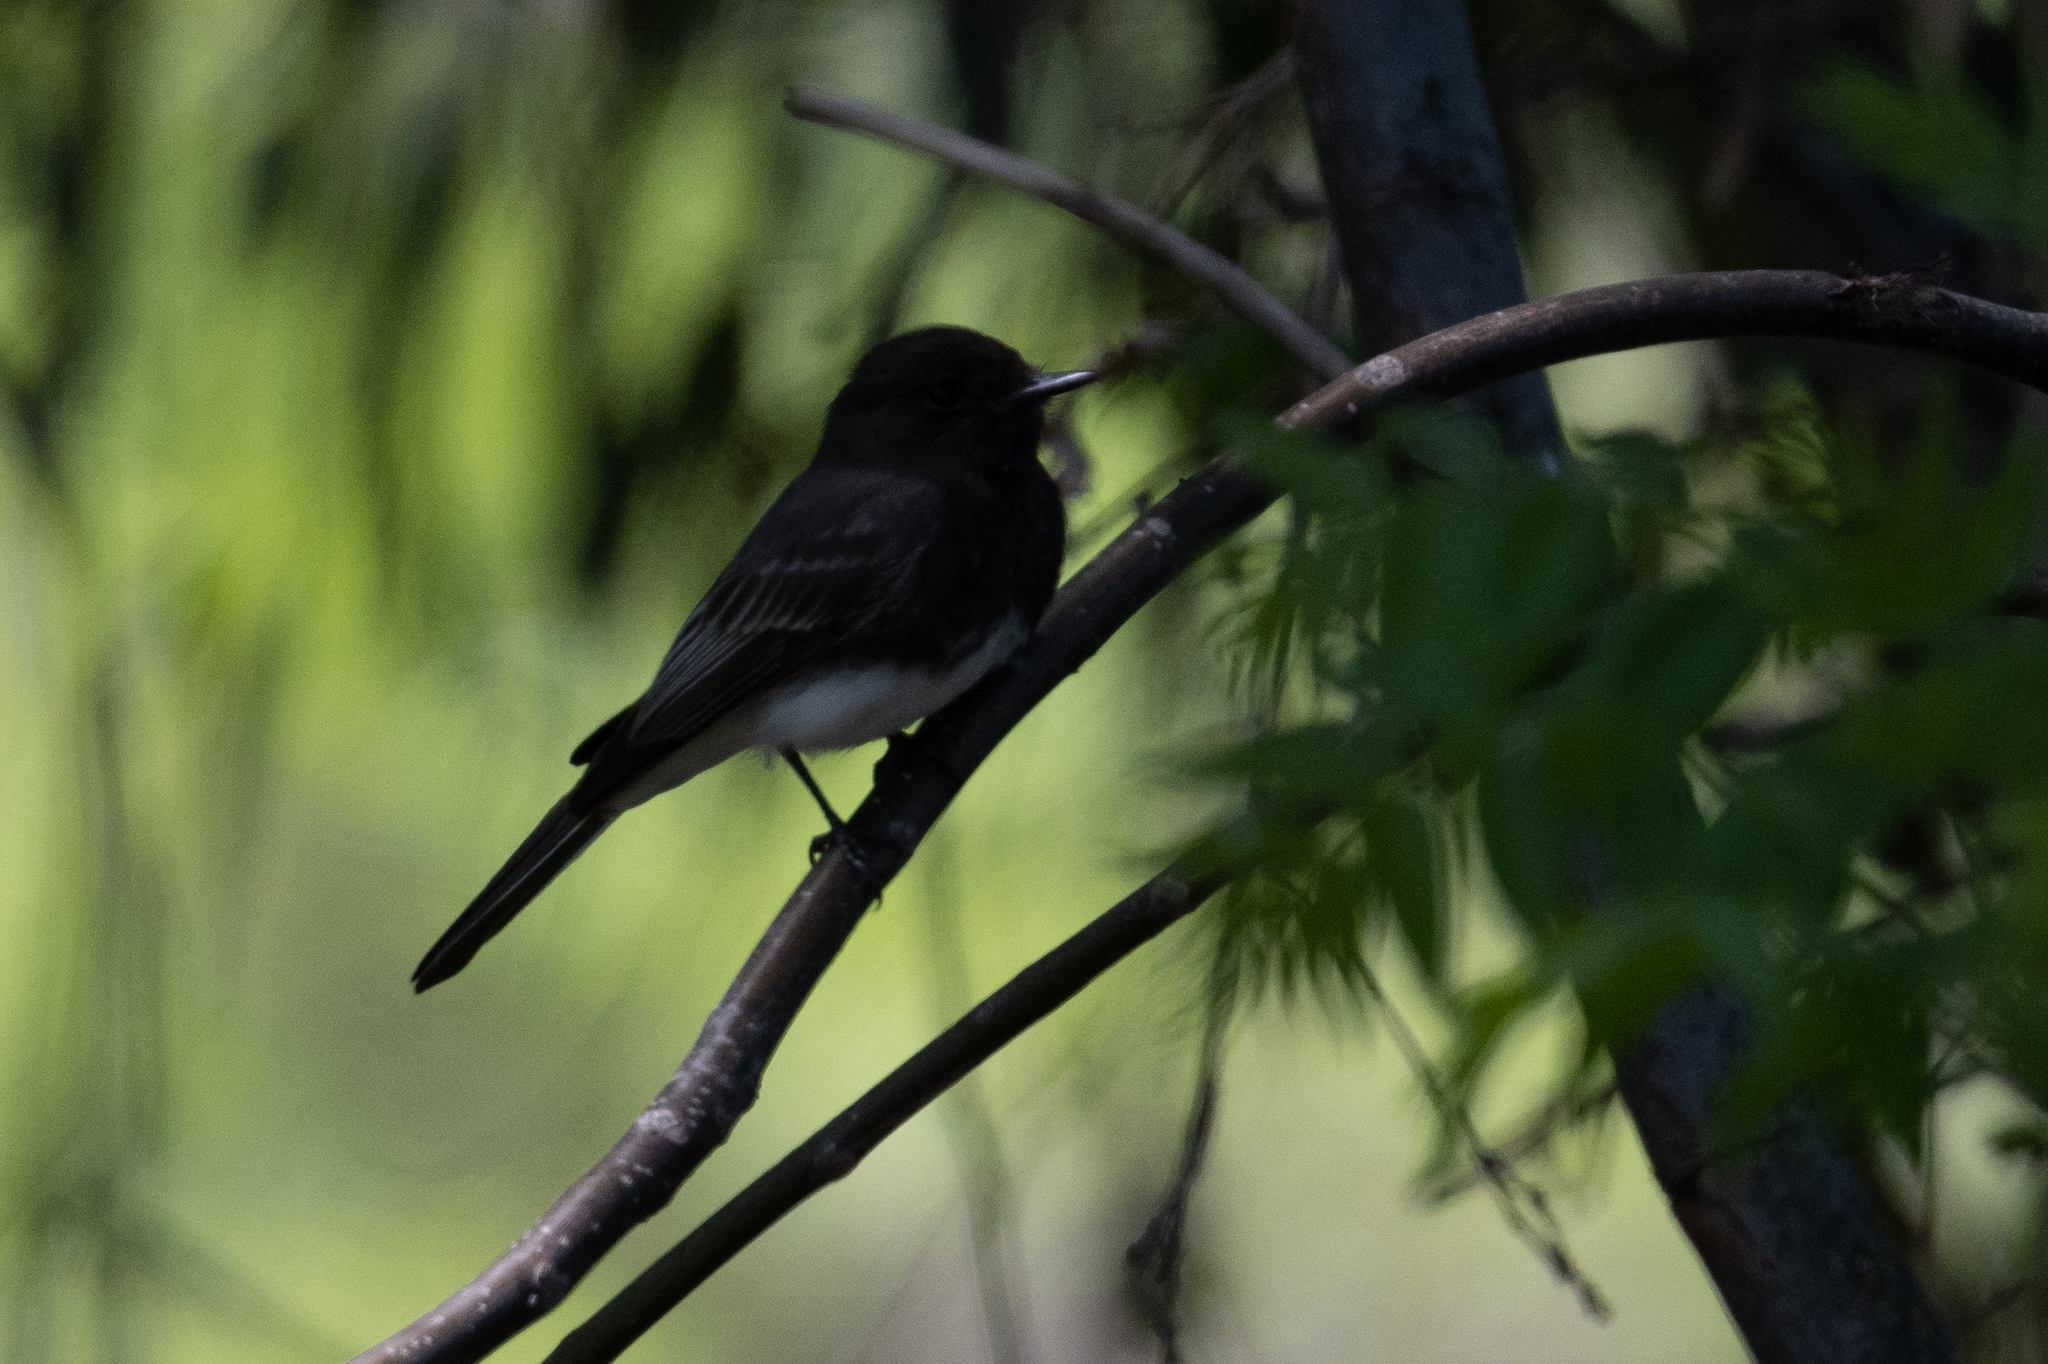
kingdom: Animalia
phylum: Chordata
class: Aves
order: Passeriformes
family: Tyrannidae
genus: Sayornis
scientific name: Sayornis nigricans
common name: Black phoebe
